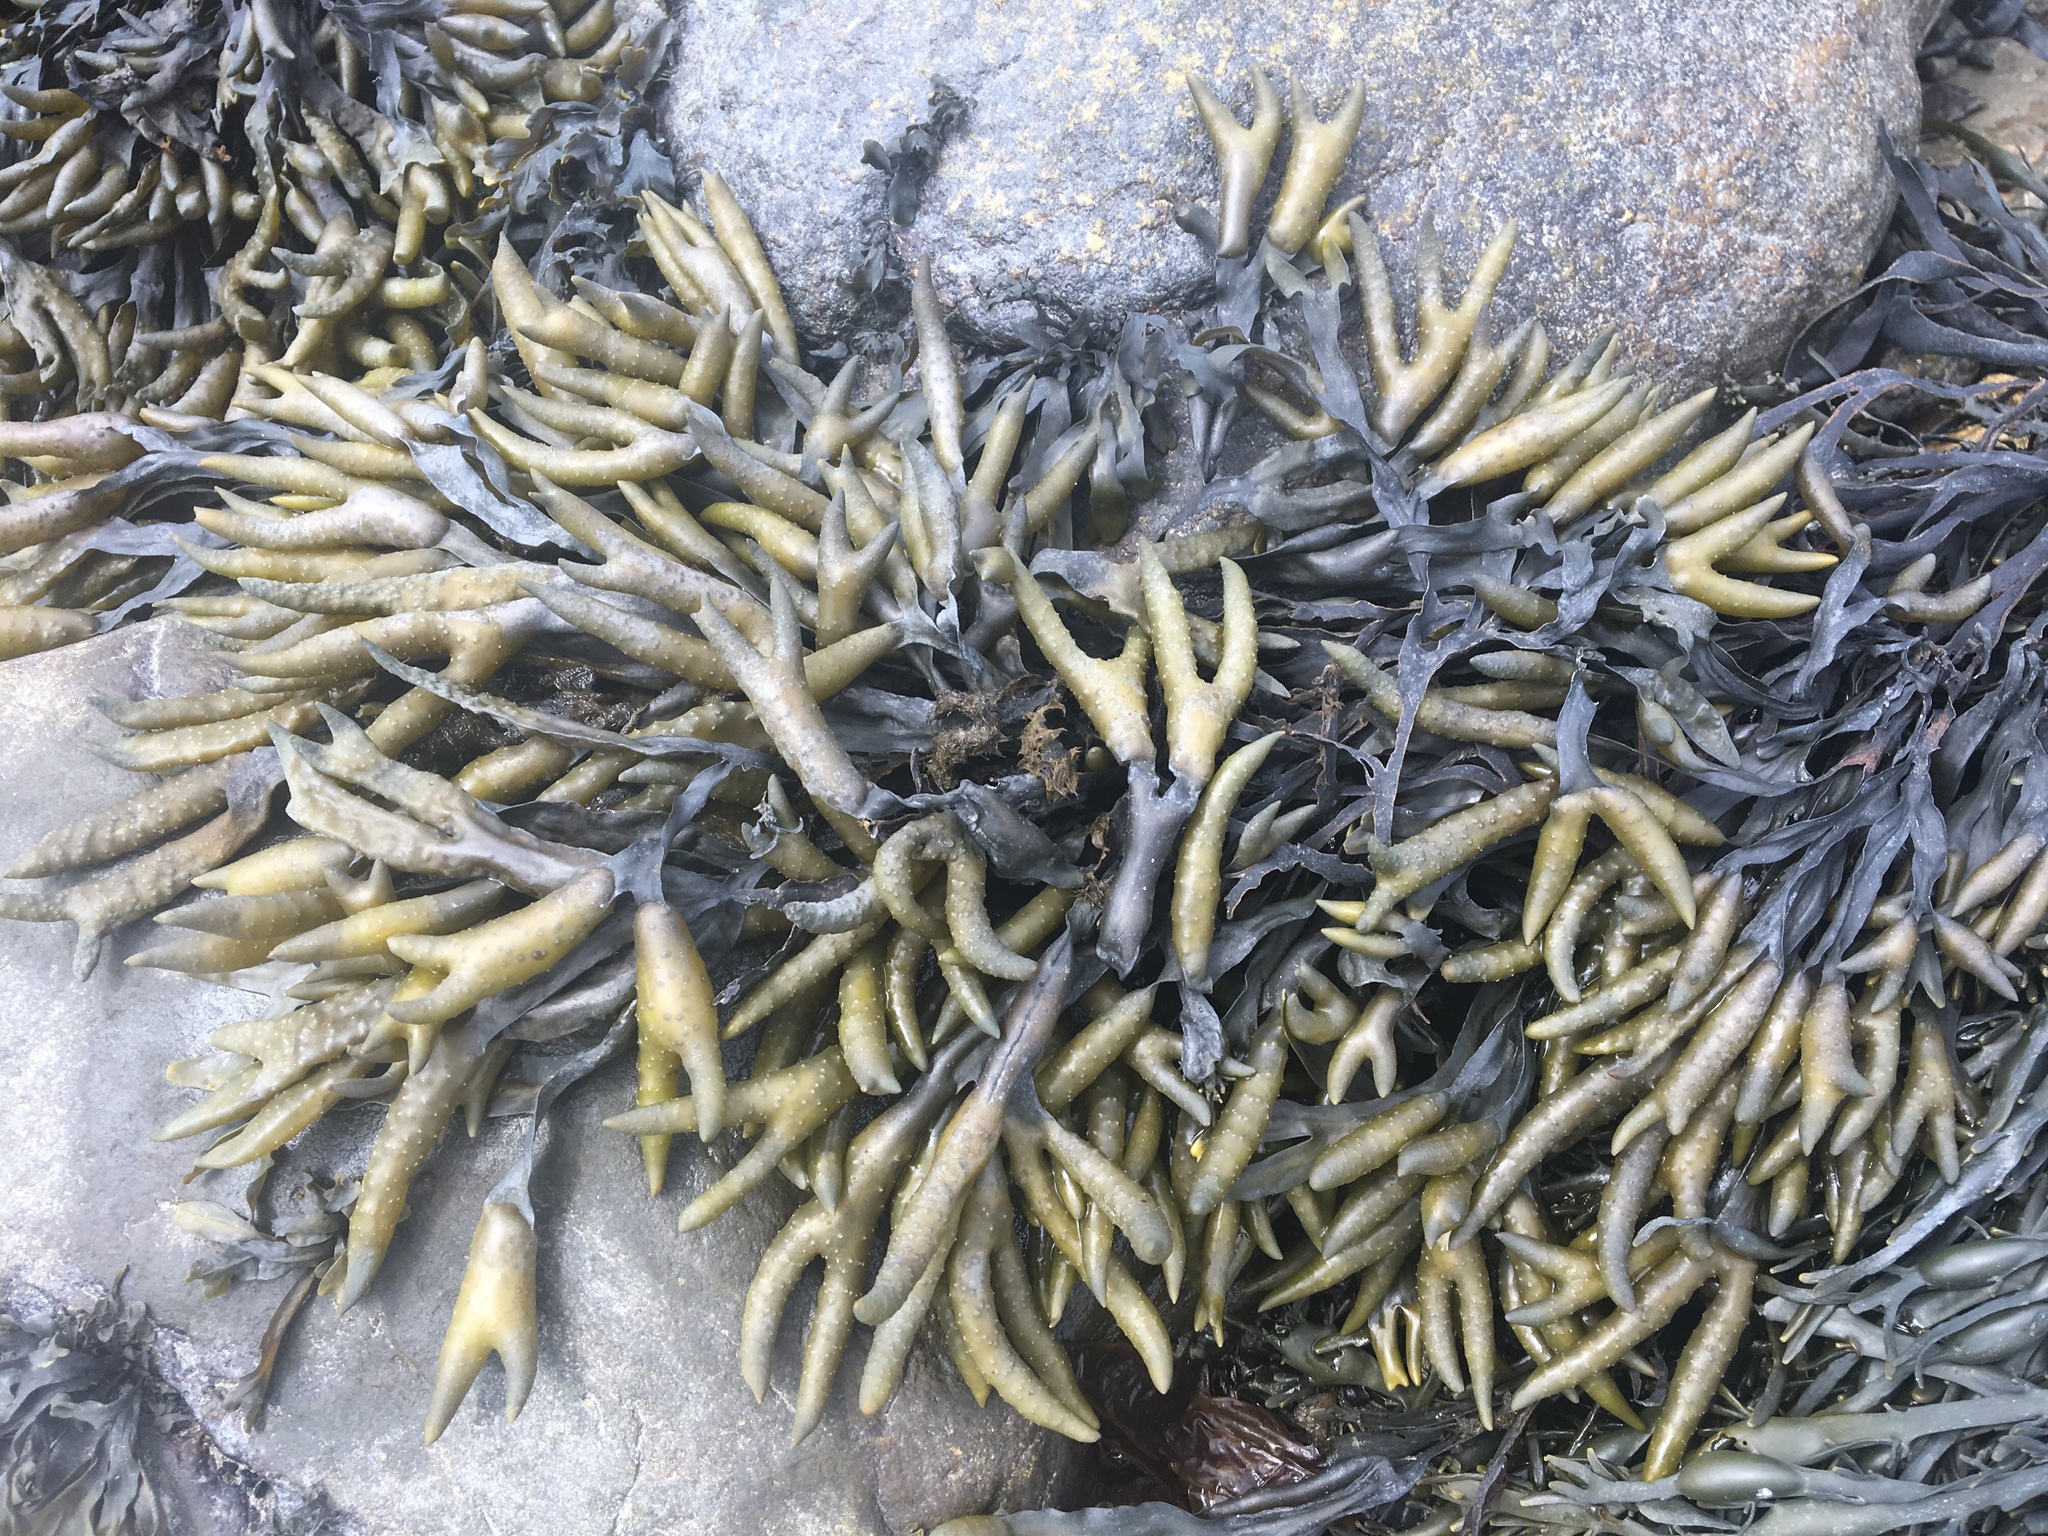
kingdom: Chromista
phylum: Ochrophyta
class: Phaeophyceae
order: Fucales
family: Fucaceae
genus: Fucus
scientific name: Fucus distichus
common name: Rockweed
